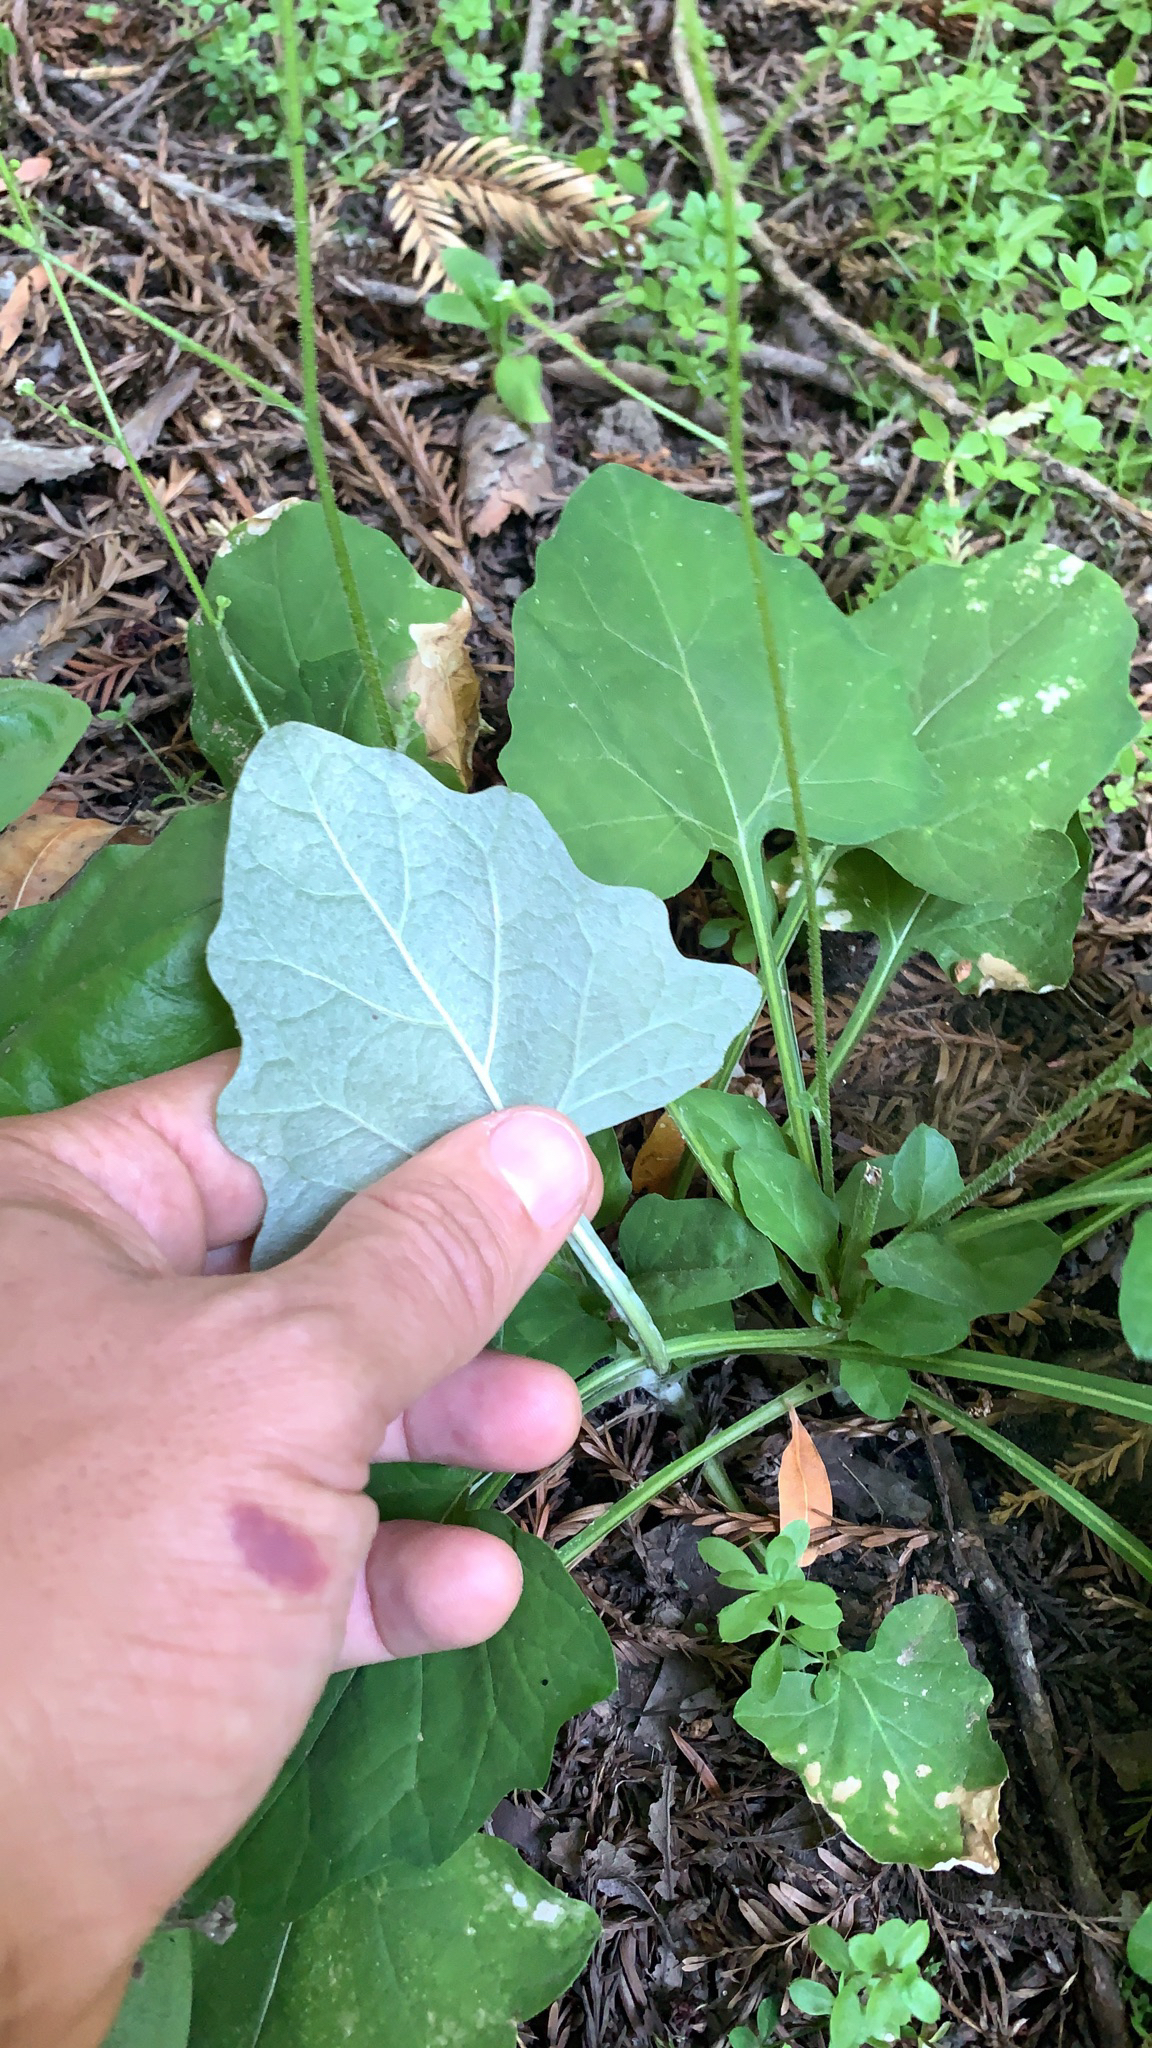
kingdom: Plantae
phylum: Tracheophyta
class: Magnoliopsida
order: Asterales
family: Asteraceae
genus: Adenocaulon
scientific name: Adenocaulon bicolor
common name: Trailplant
